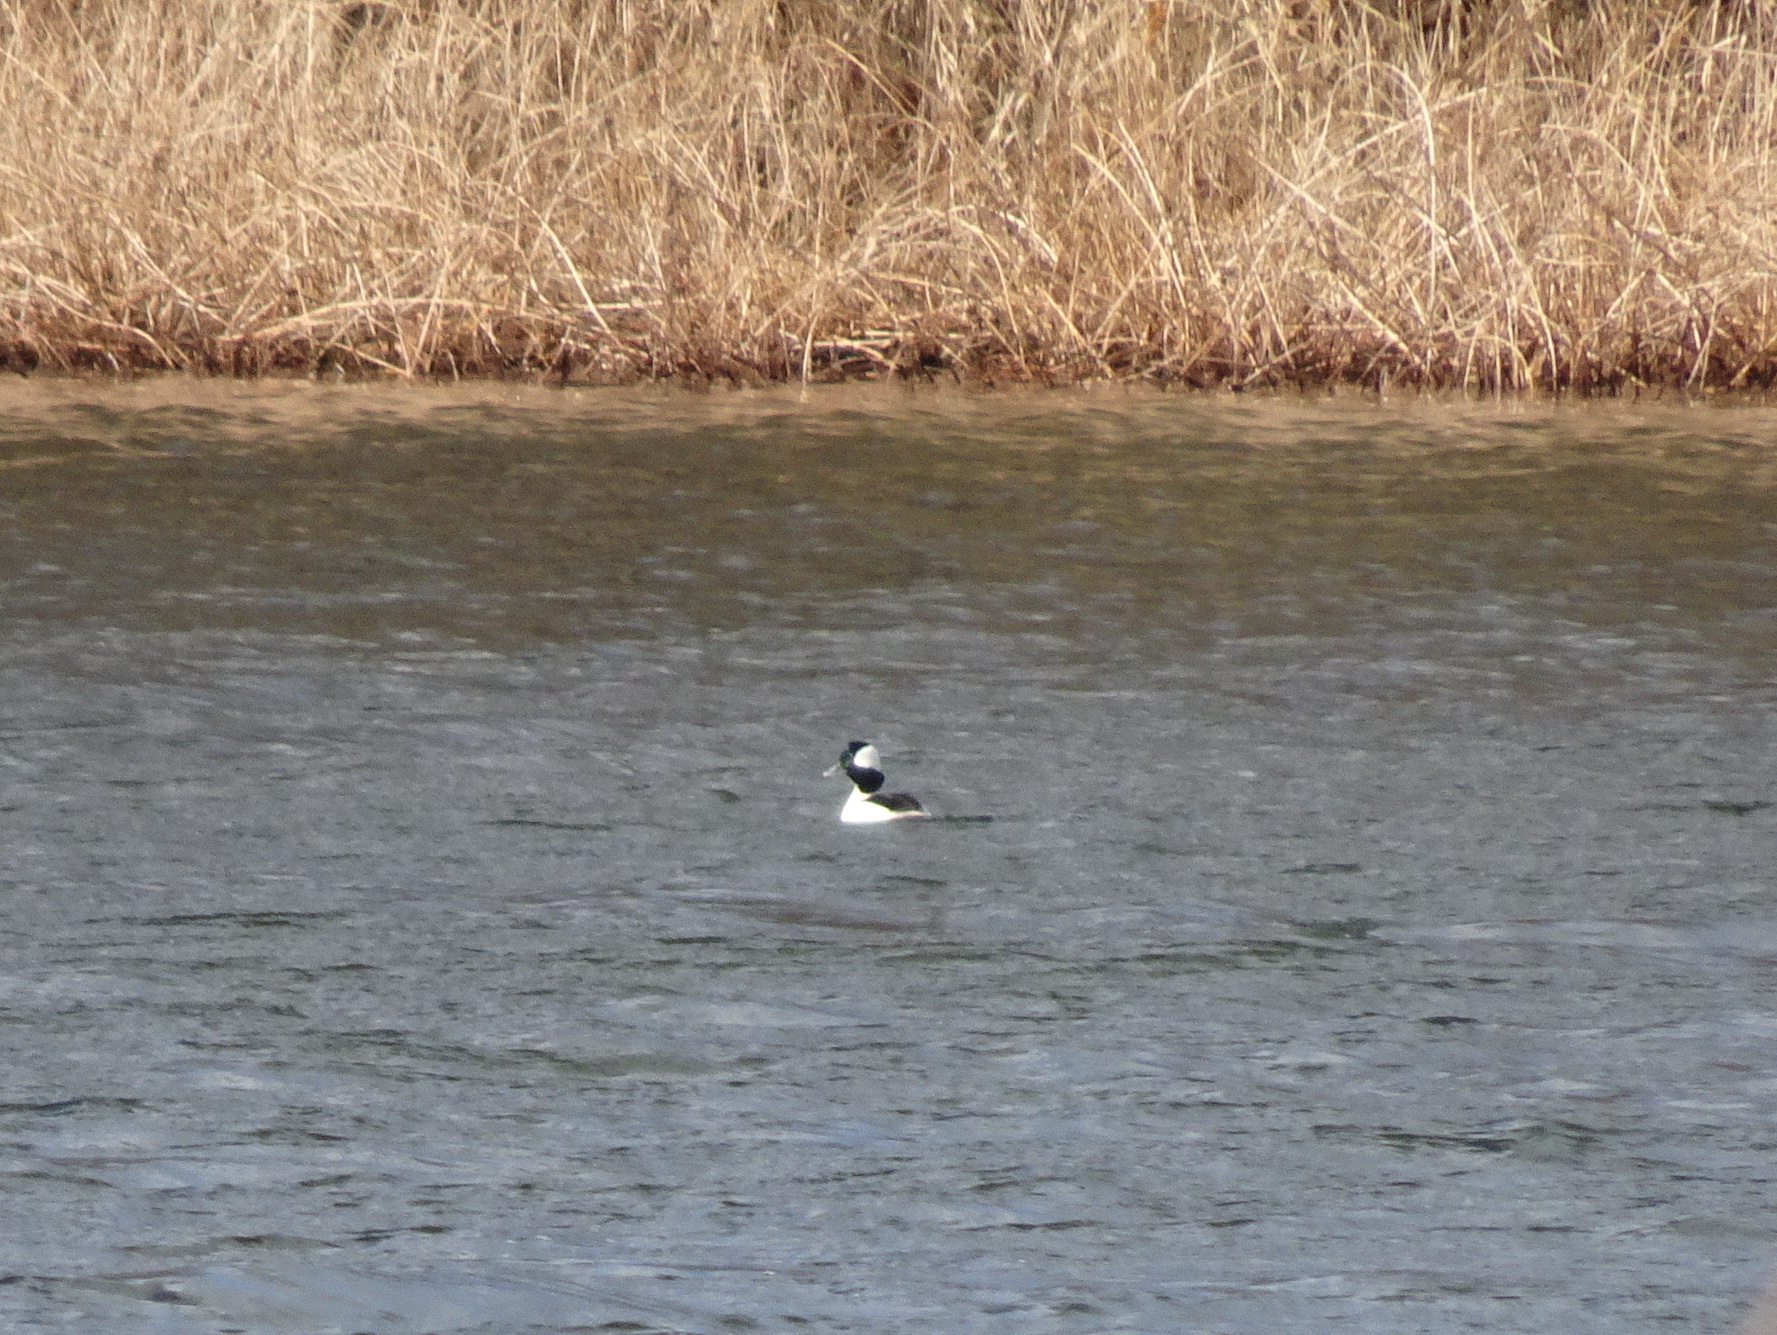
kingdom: Animalia
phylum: Chordata
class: Aves
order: Anseriformes
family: Anatidae
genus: Bucephala
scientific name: Bucephala albeola
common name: Bufflehead
